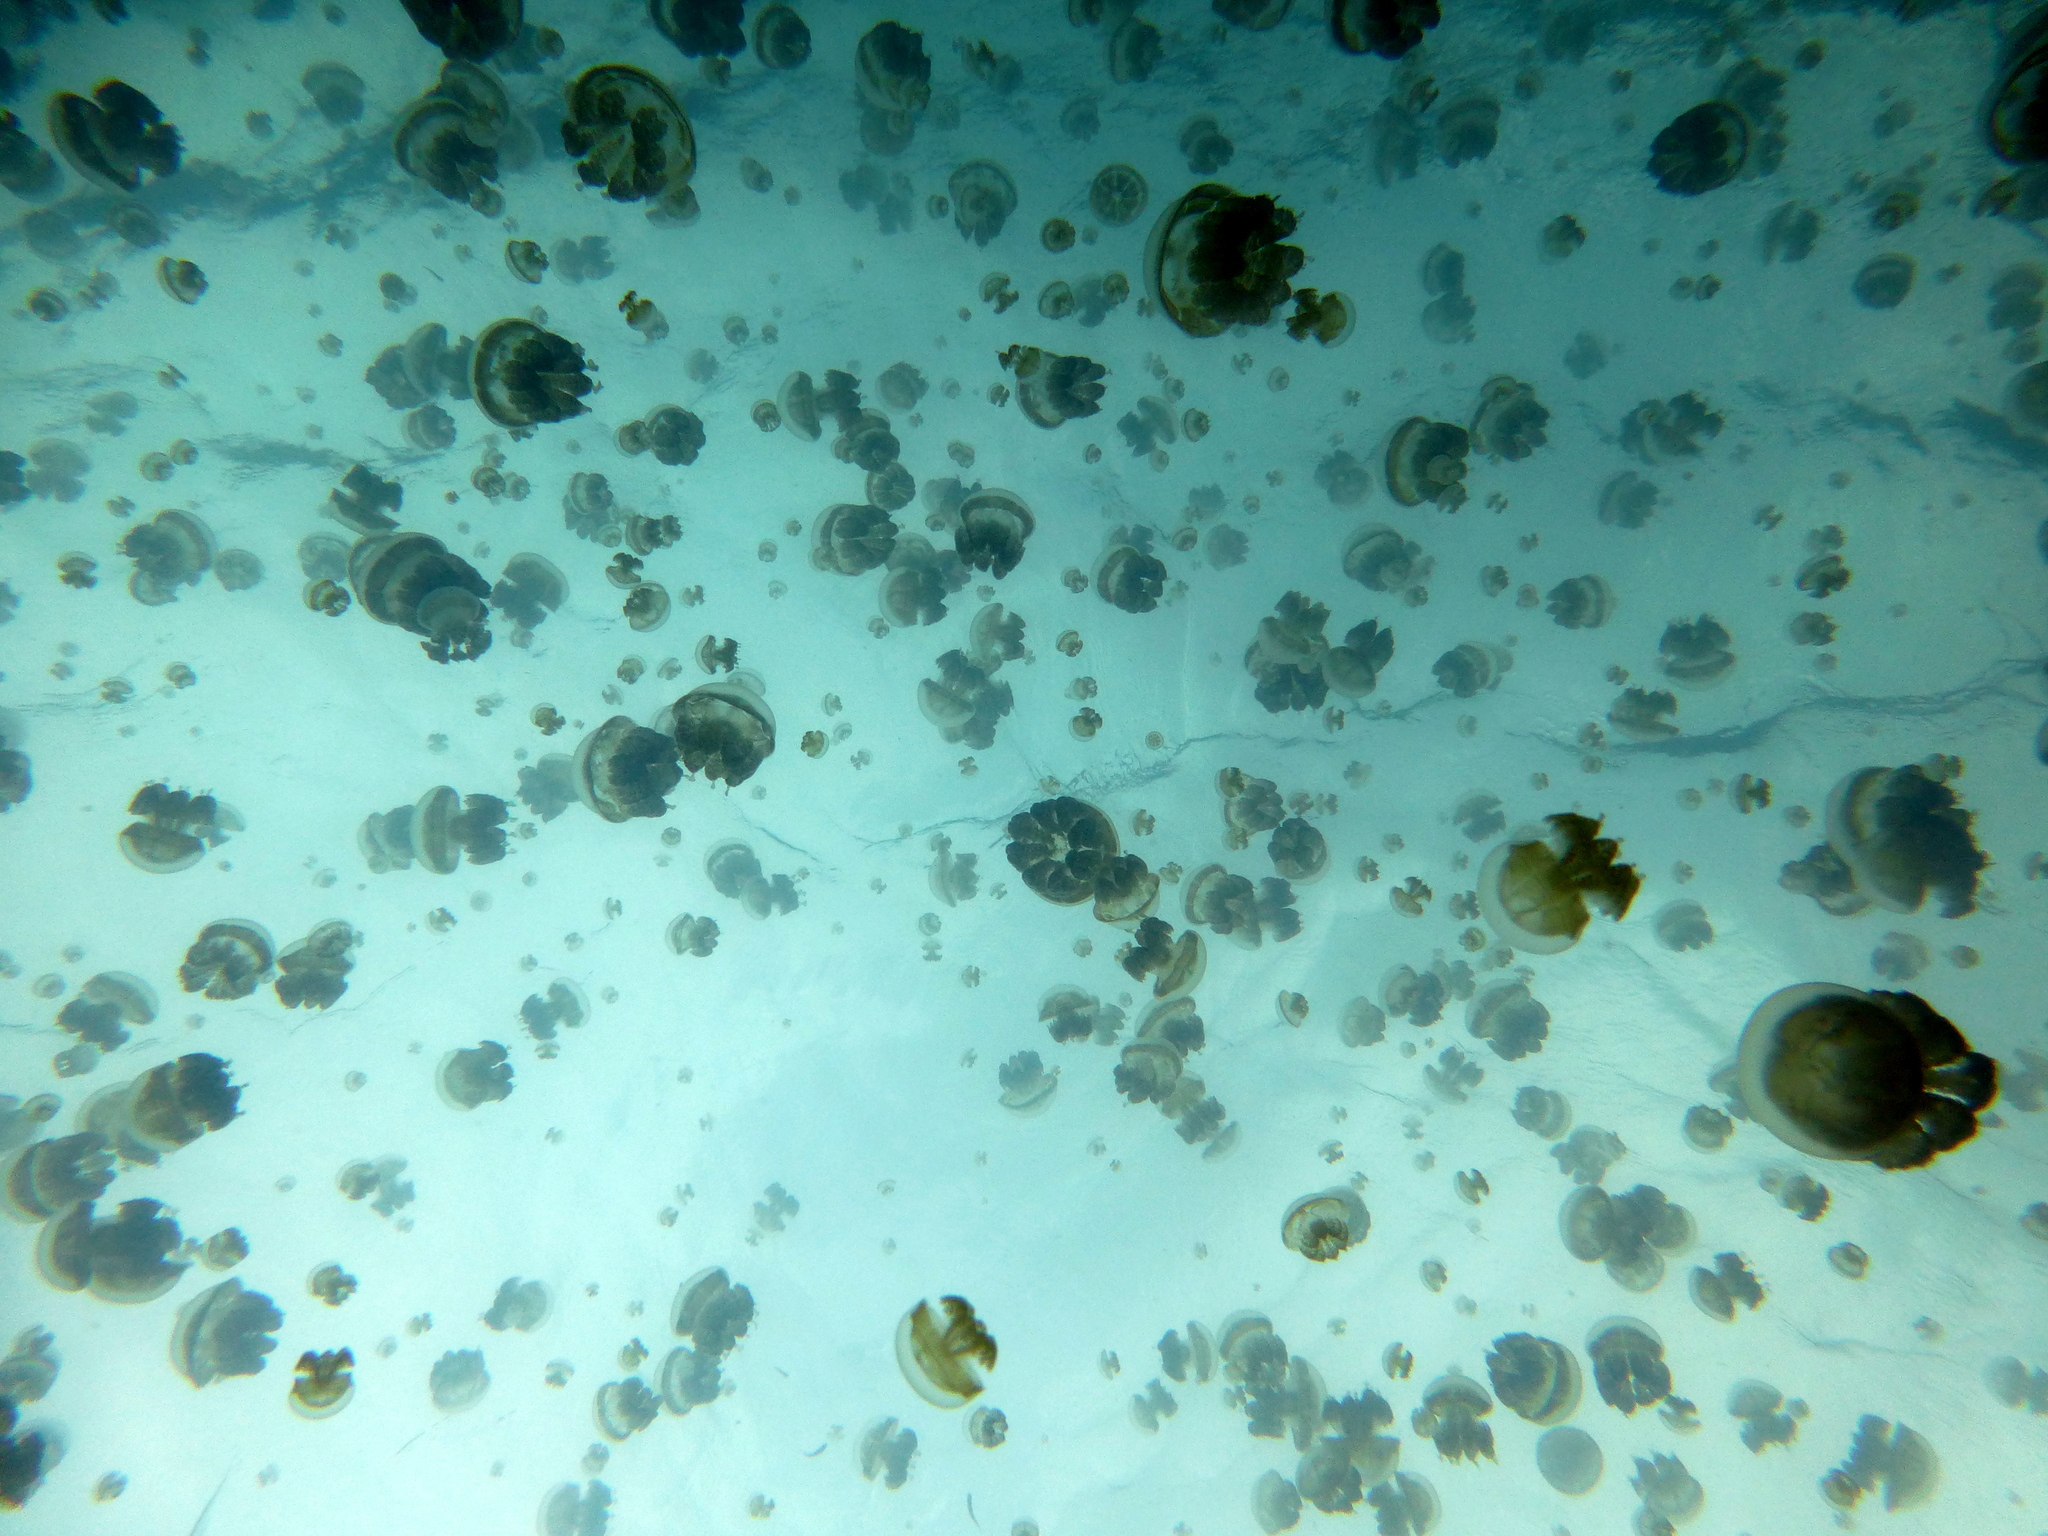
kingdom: Animalia
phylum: Cnidaria
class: Scyphozoa
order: Rhizostomeae
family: Mastigiidae
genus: Mastigias
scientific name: Mastigias papua
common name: Papuan jellyfish
